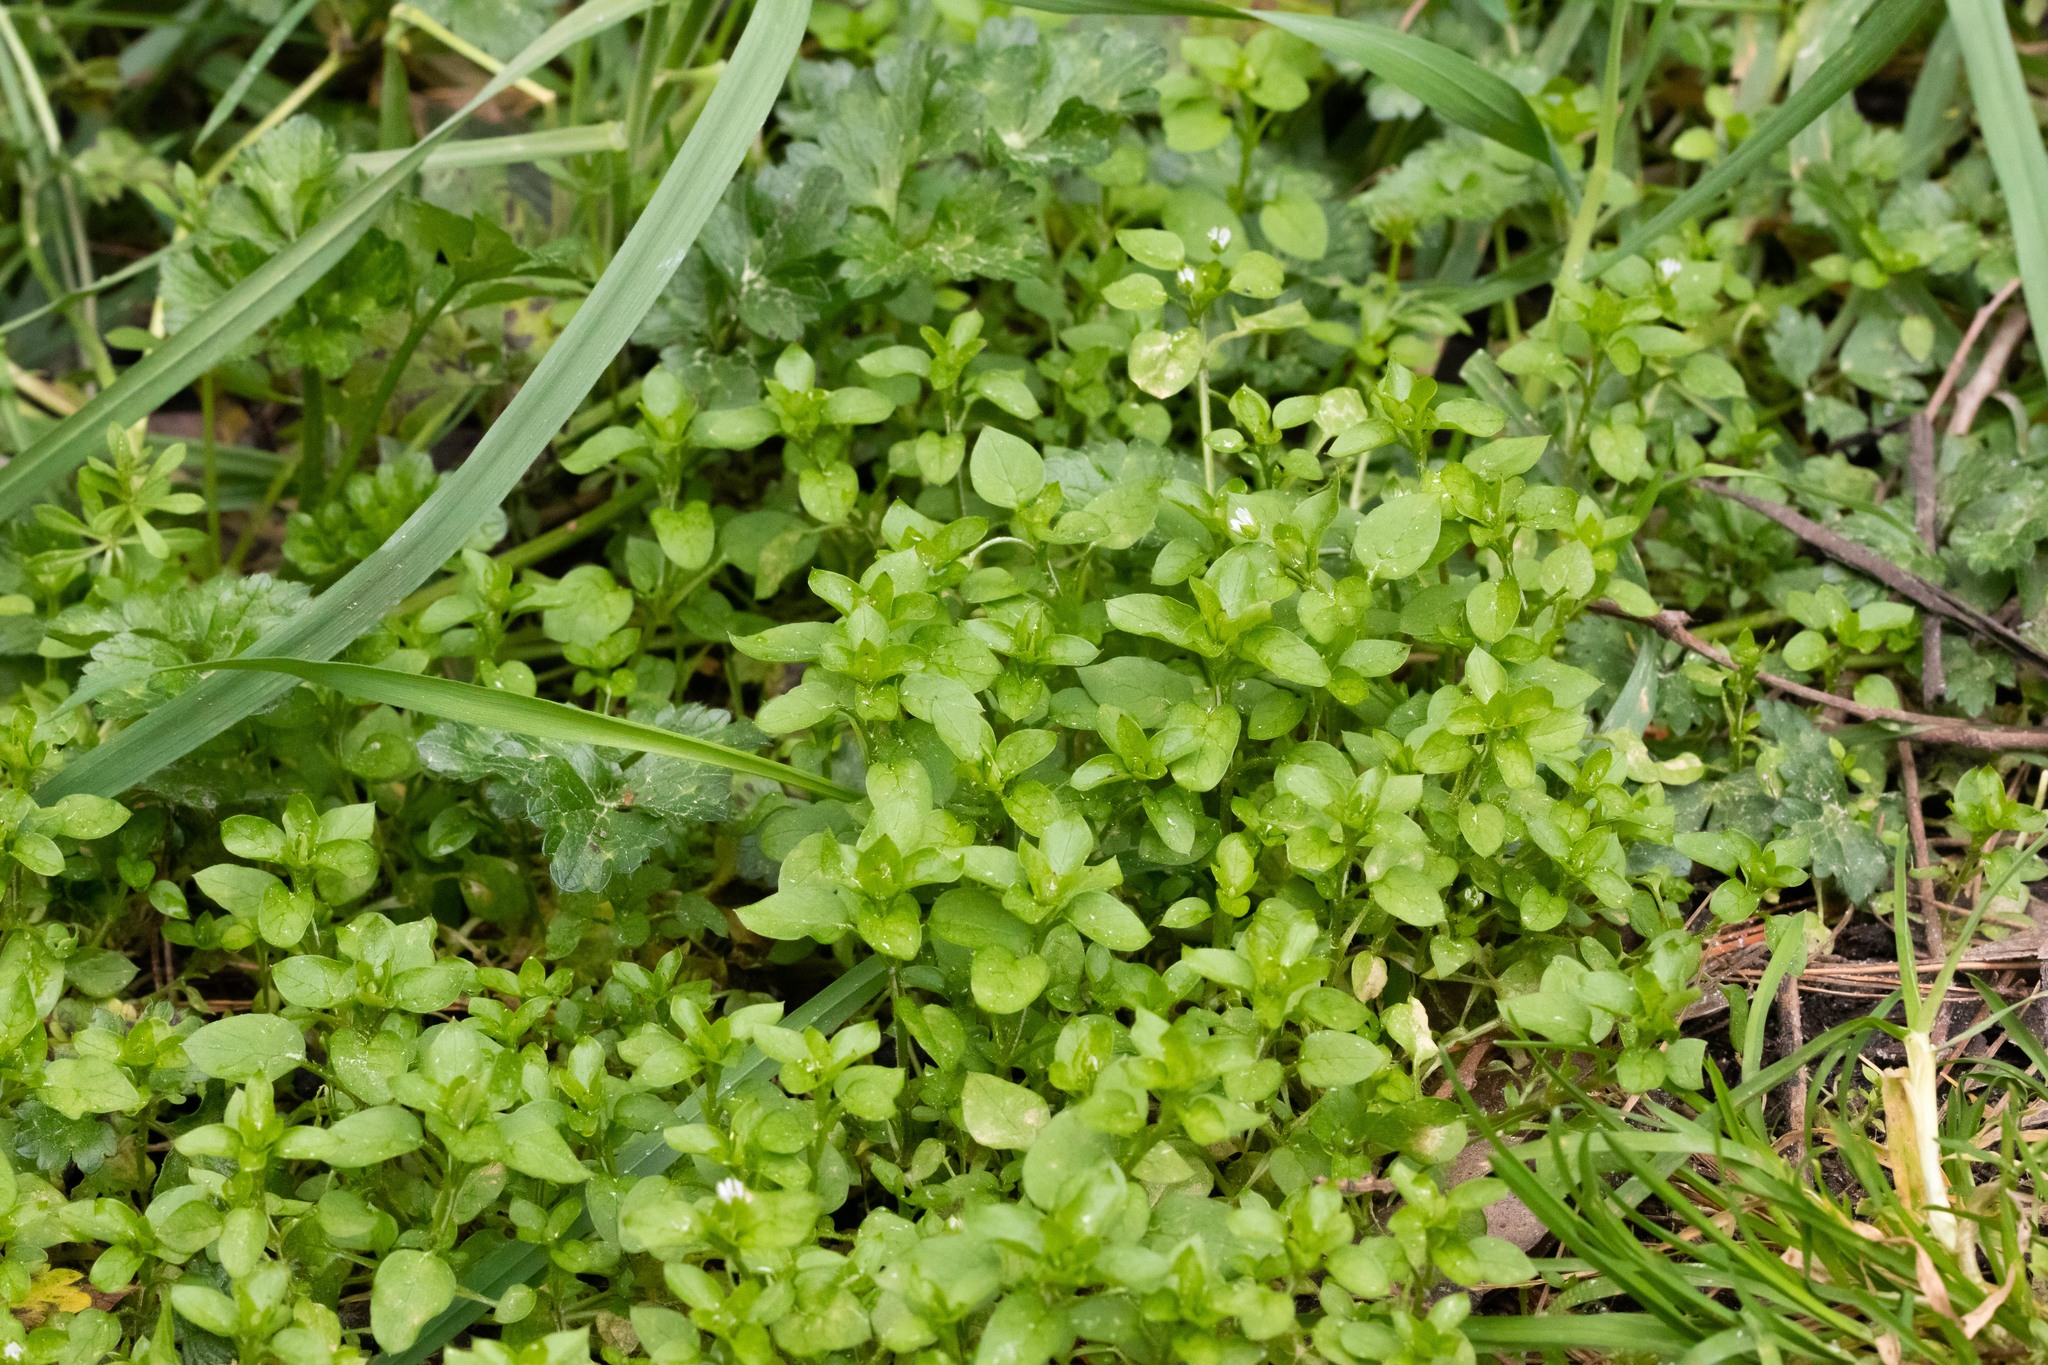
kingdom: Plantae
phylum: Tracheophyta
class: Magnoliopsida
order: Caryophyllales
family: Caryophyllaceae
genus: Stellaria
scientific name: Stellaria media
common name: Common chickweed
